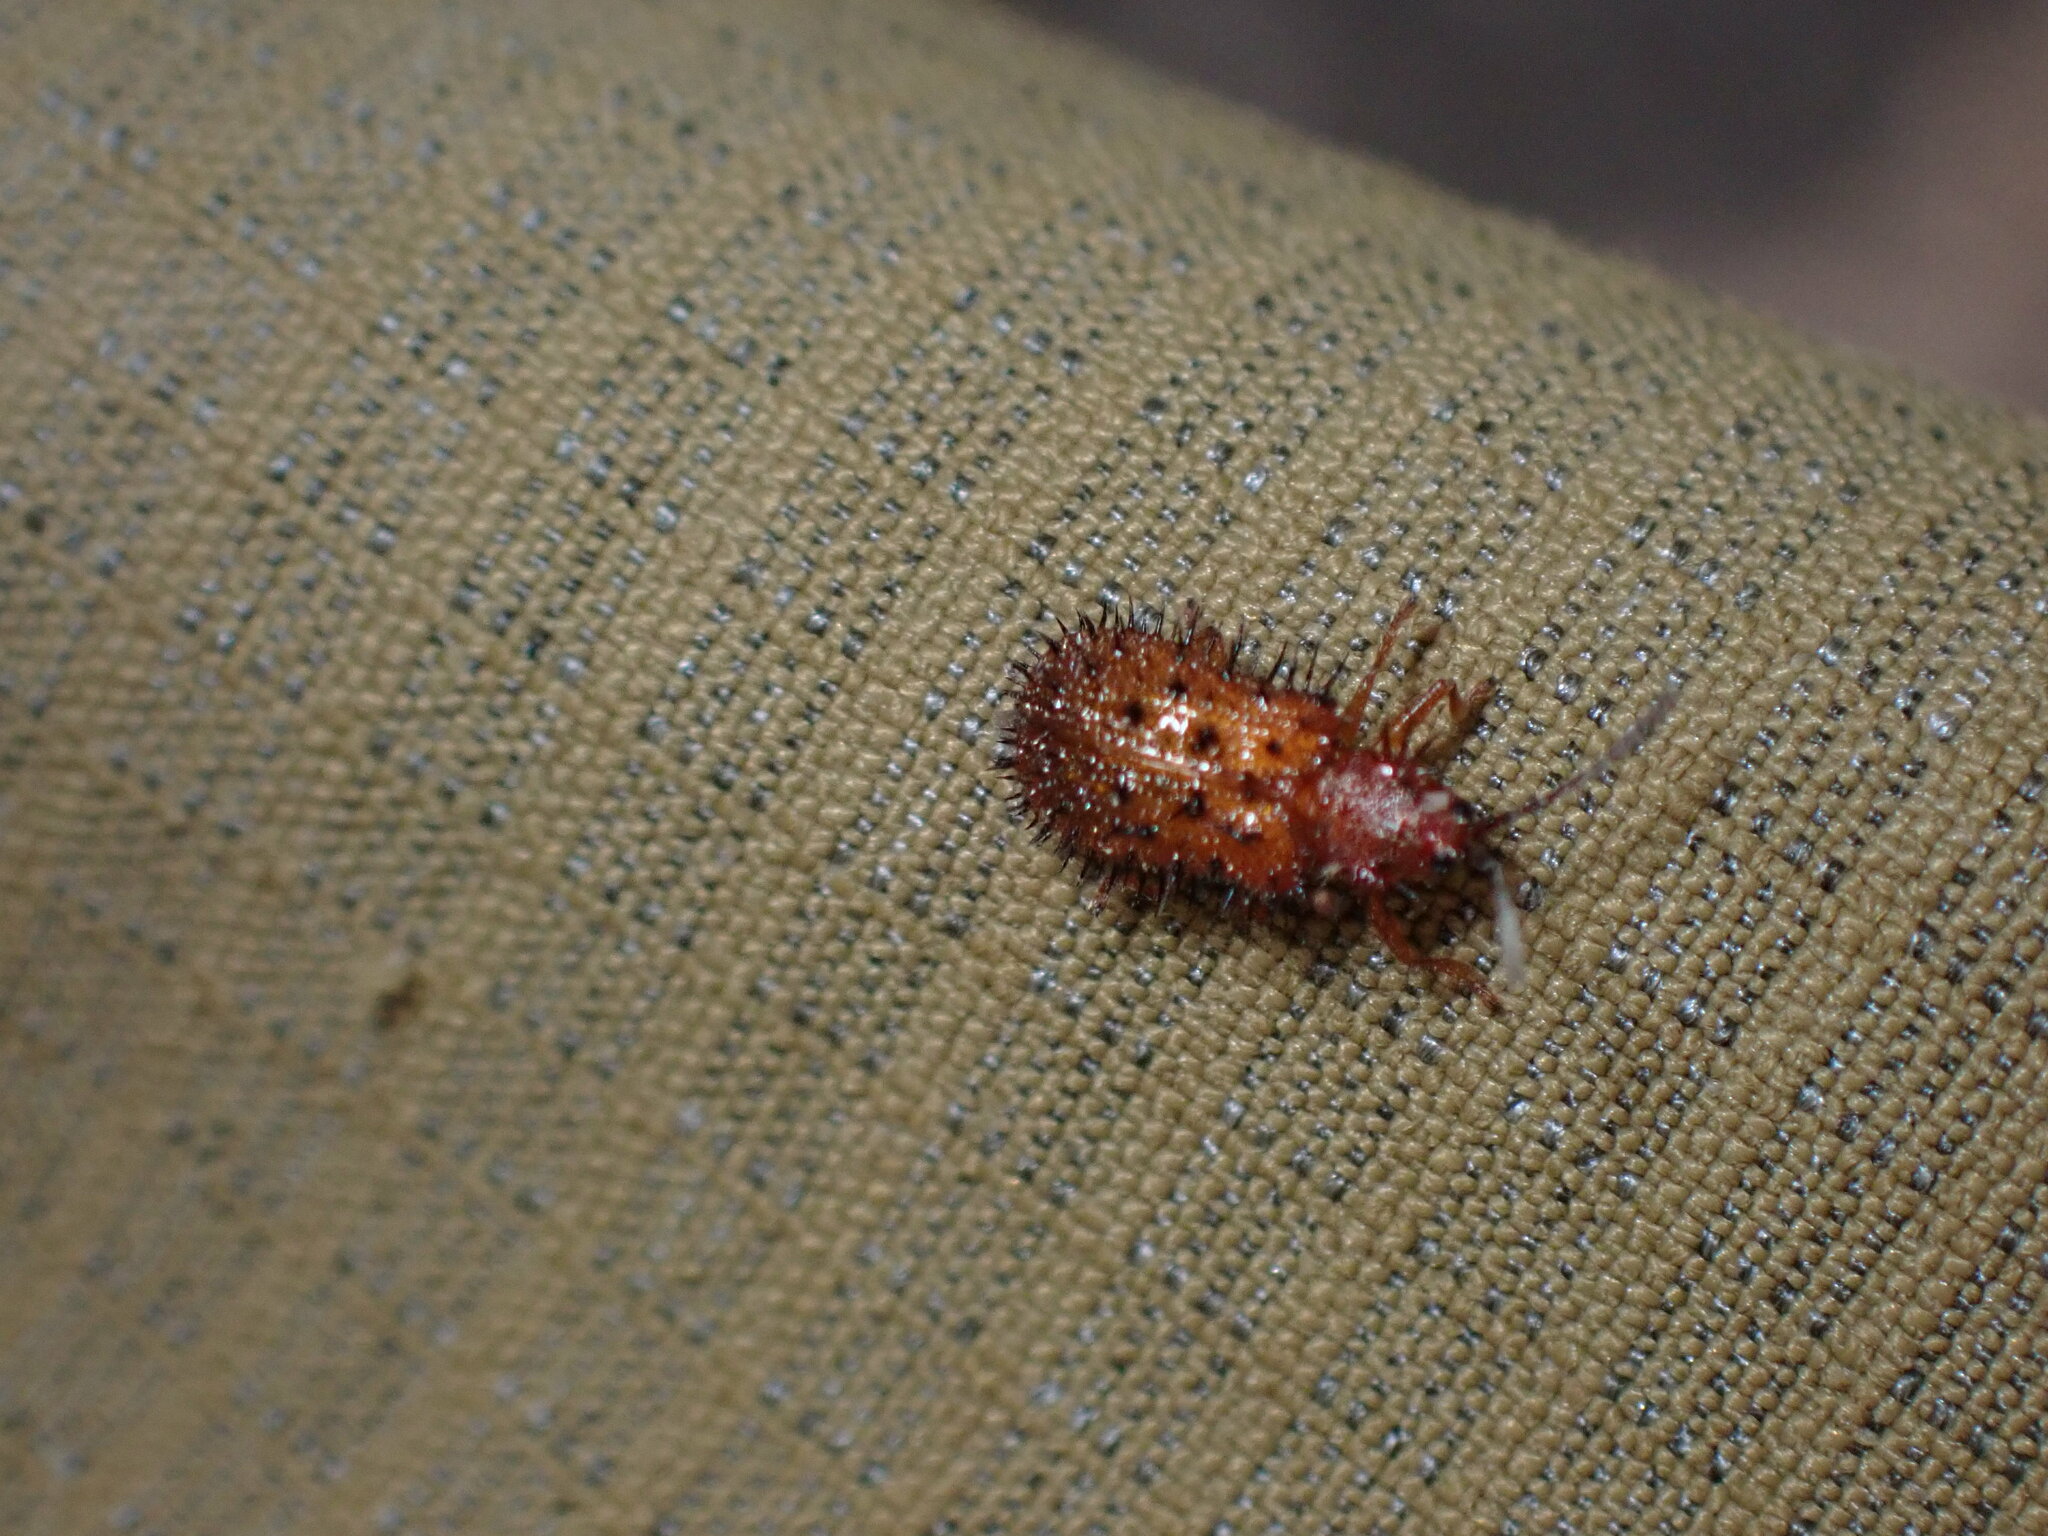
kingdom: Animalia
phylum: Arthropoda
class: Insecta
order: Coleoptera
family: Chrysomelidae
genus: Dicladispa
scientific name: Dicladispa testacea
